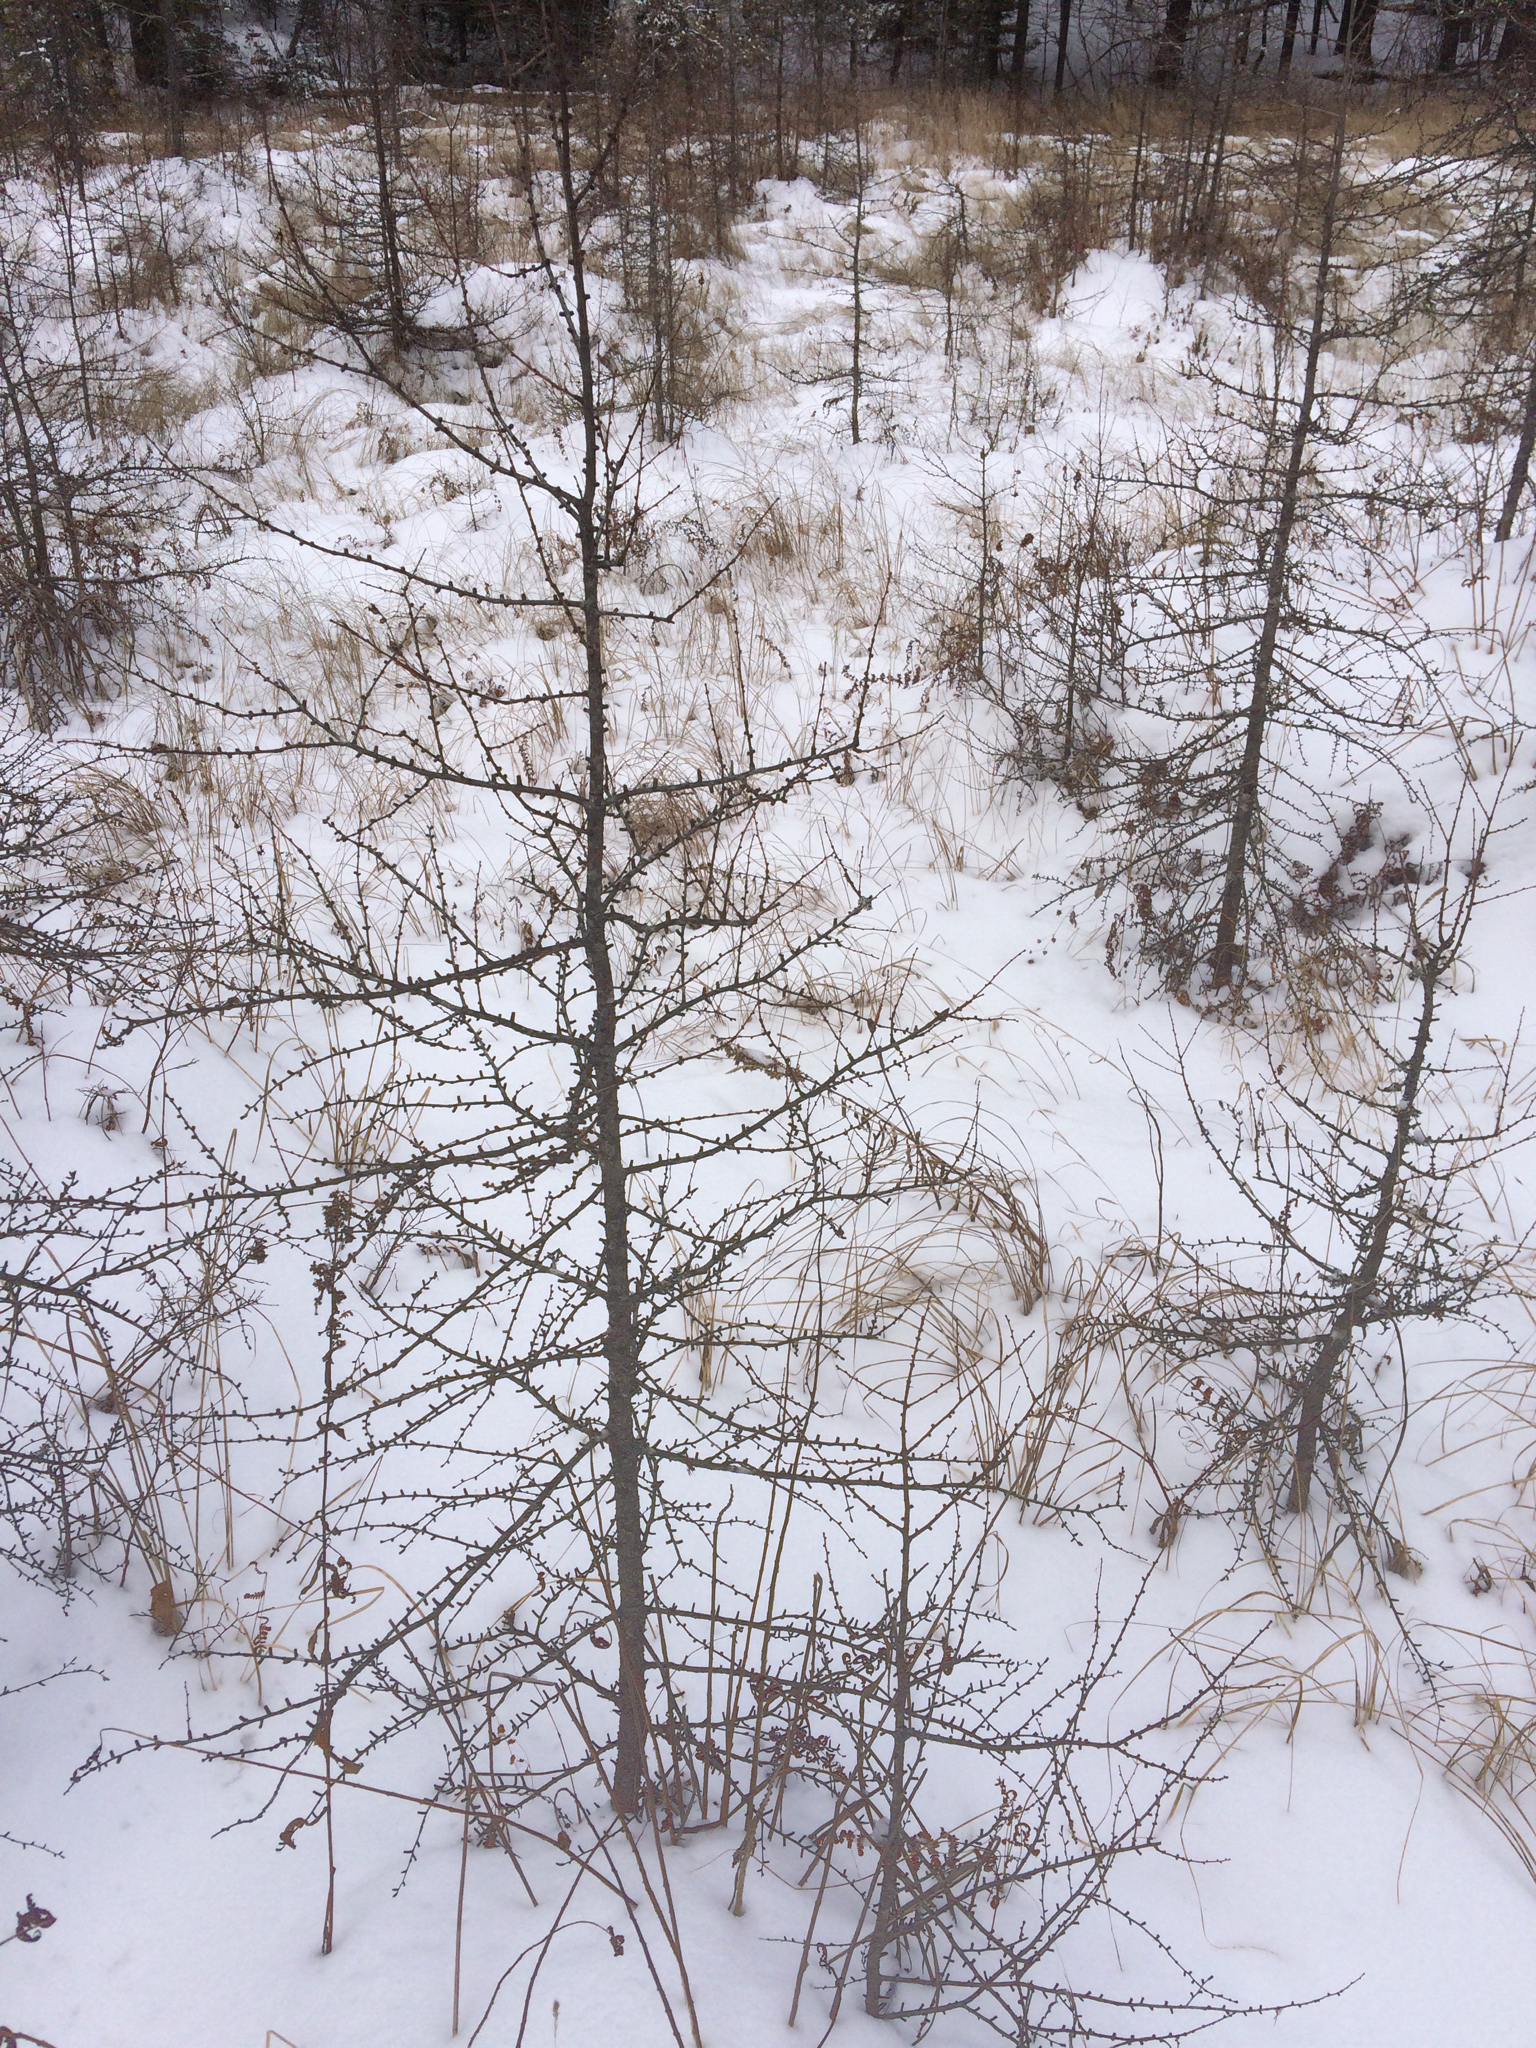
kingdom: Plantae
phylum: Tracheophyta
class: Pinopsida
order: Pinales
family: Pinaceae
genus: Larix
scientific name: Larix laricina
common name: American larch
